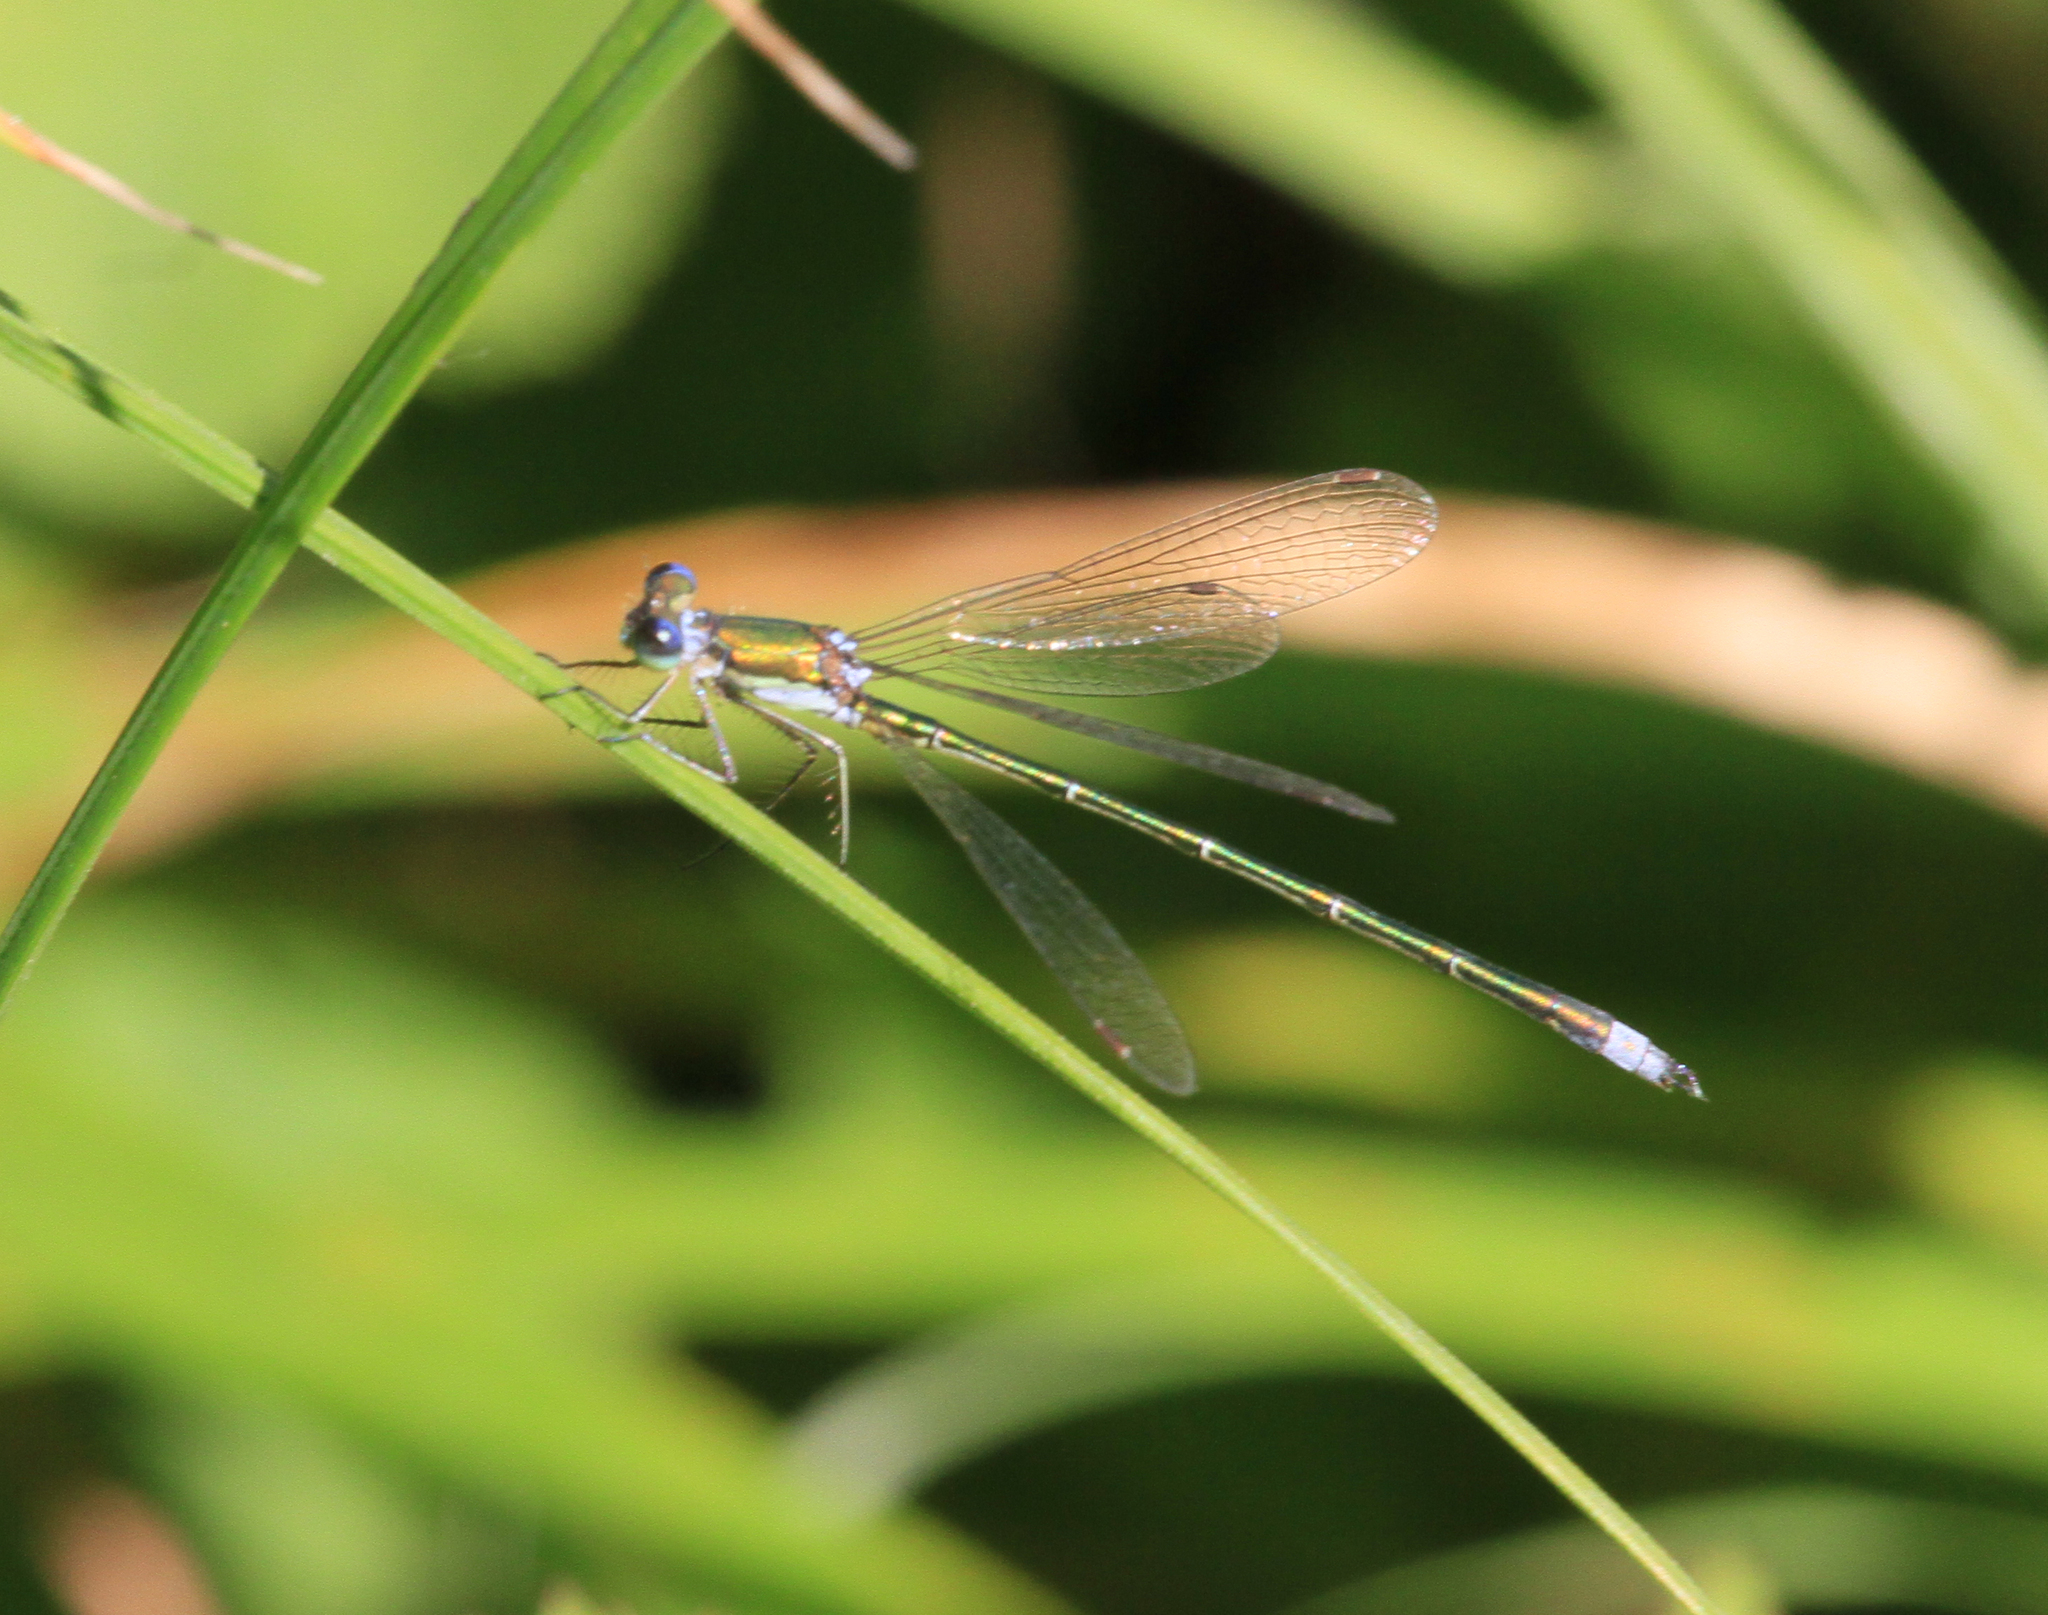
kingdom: Animalia
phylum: Arthropoda
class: Insecta
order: Odonata
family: Lestidae
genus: Lestes
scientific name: Lestes virens
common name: Small emerald spreadwing
